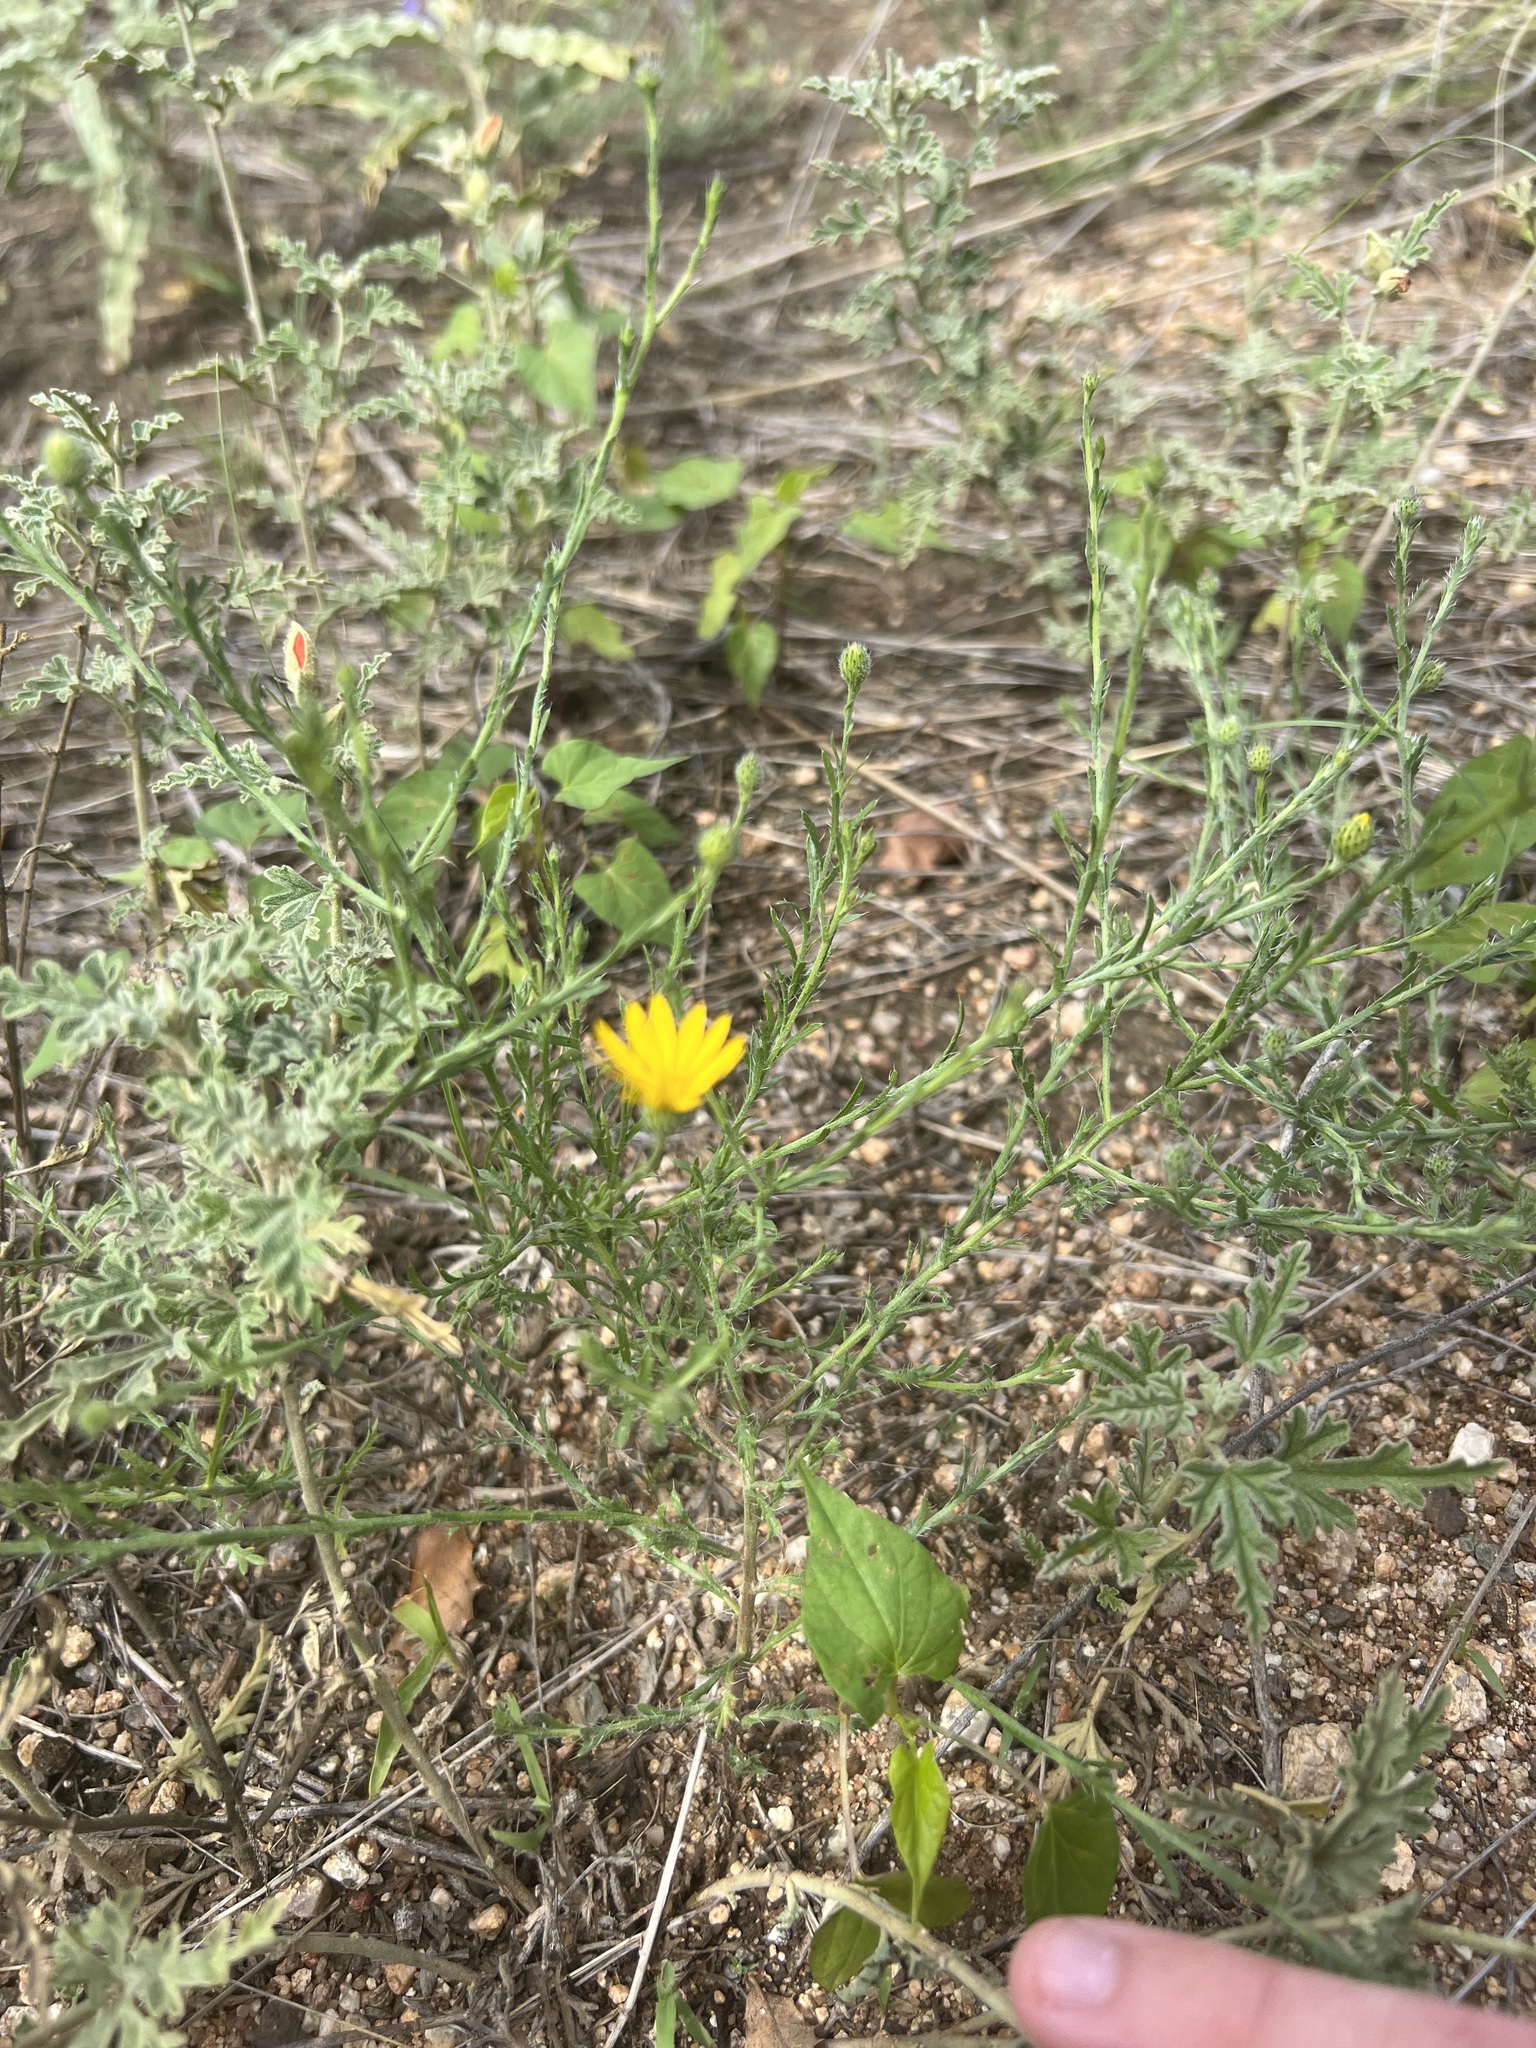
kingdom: Plantae
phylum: Tracheophyta
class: Magnoliopsida
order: Asterales
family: Asteraceae
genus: Xanthisma
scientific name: Xanthisma gracile
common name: Slender goldenweed
